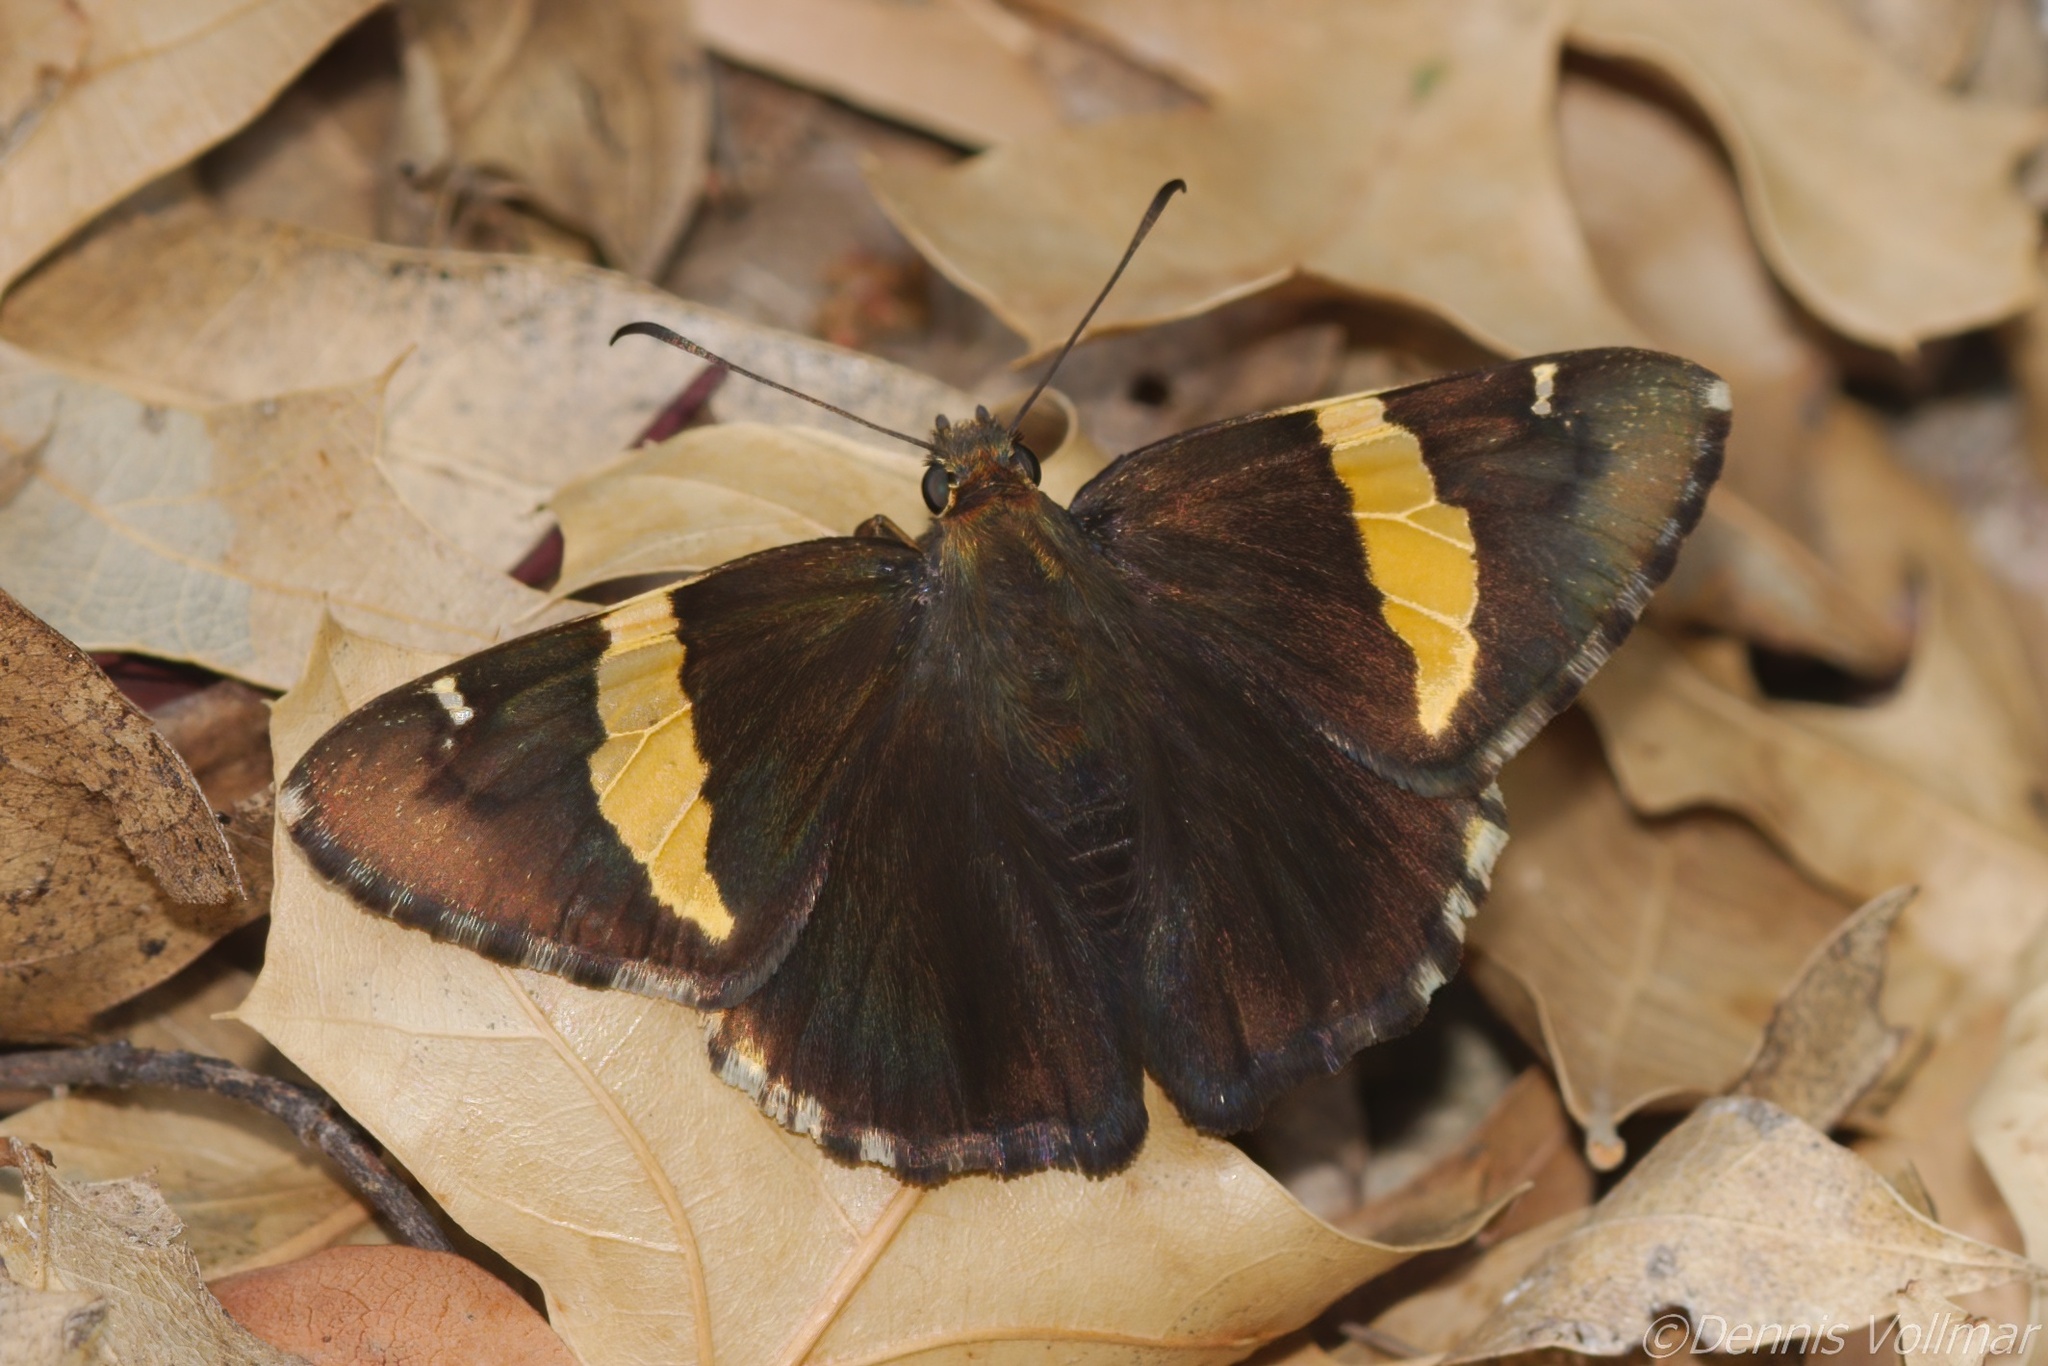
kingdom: Animalia
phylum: Arthropoda
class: Arachnida
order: Scorpiones
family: Bothriuridae
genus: Telegonus
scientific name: Telegonus cellus
